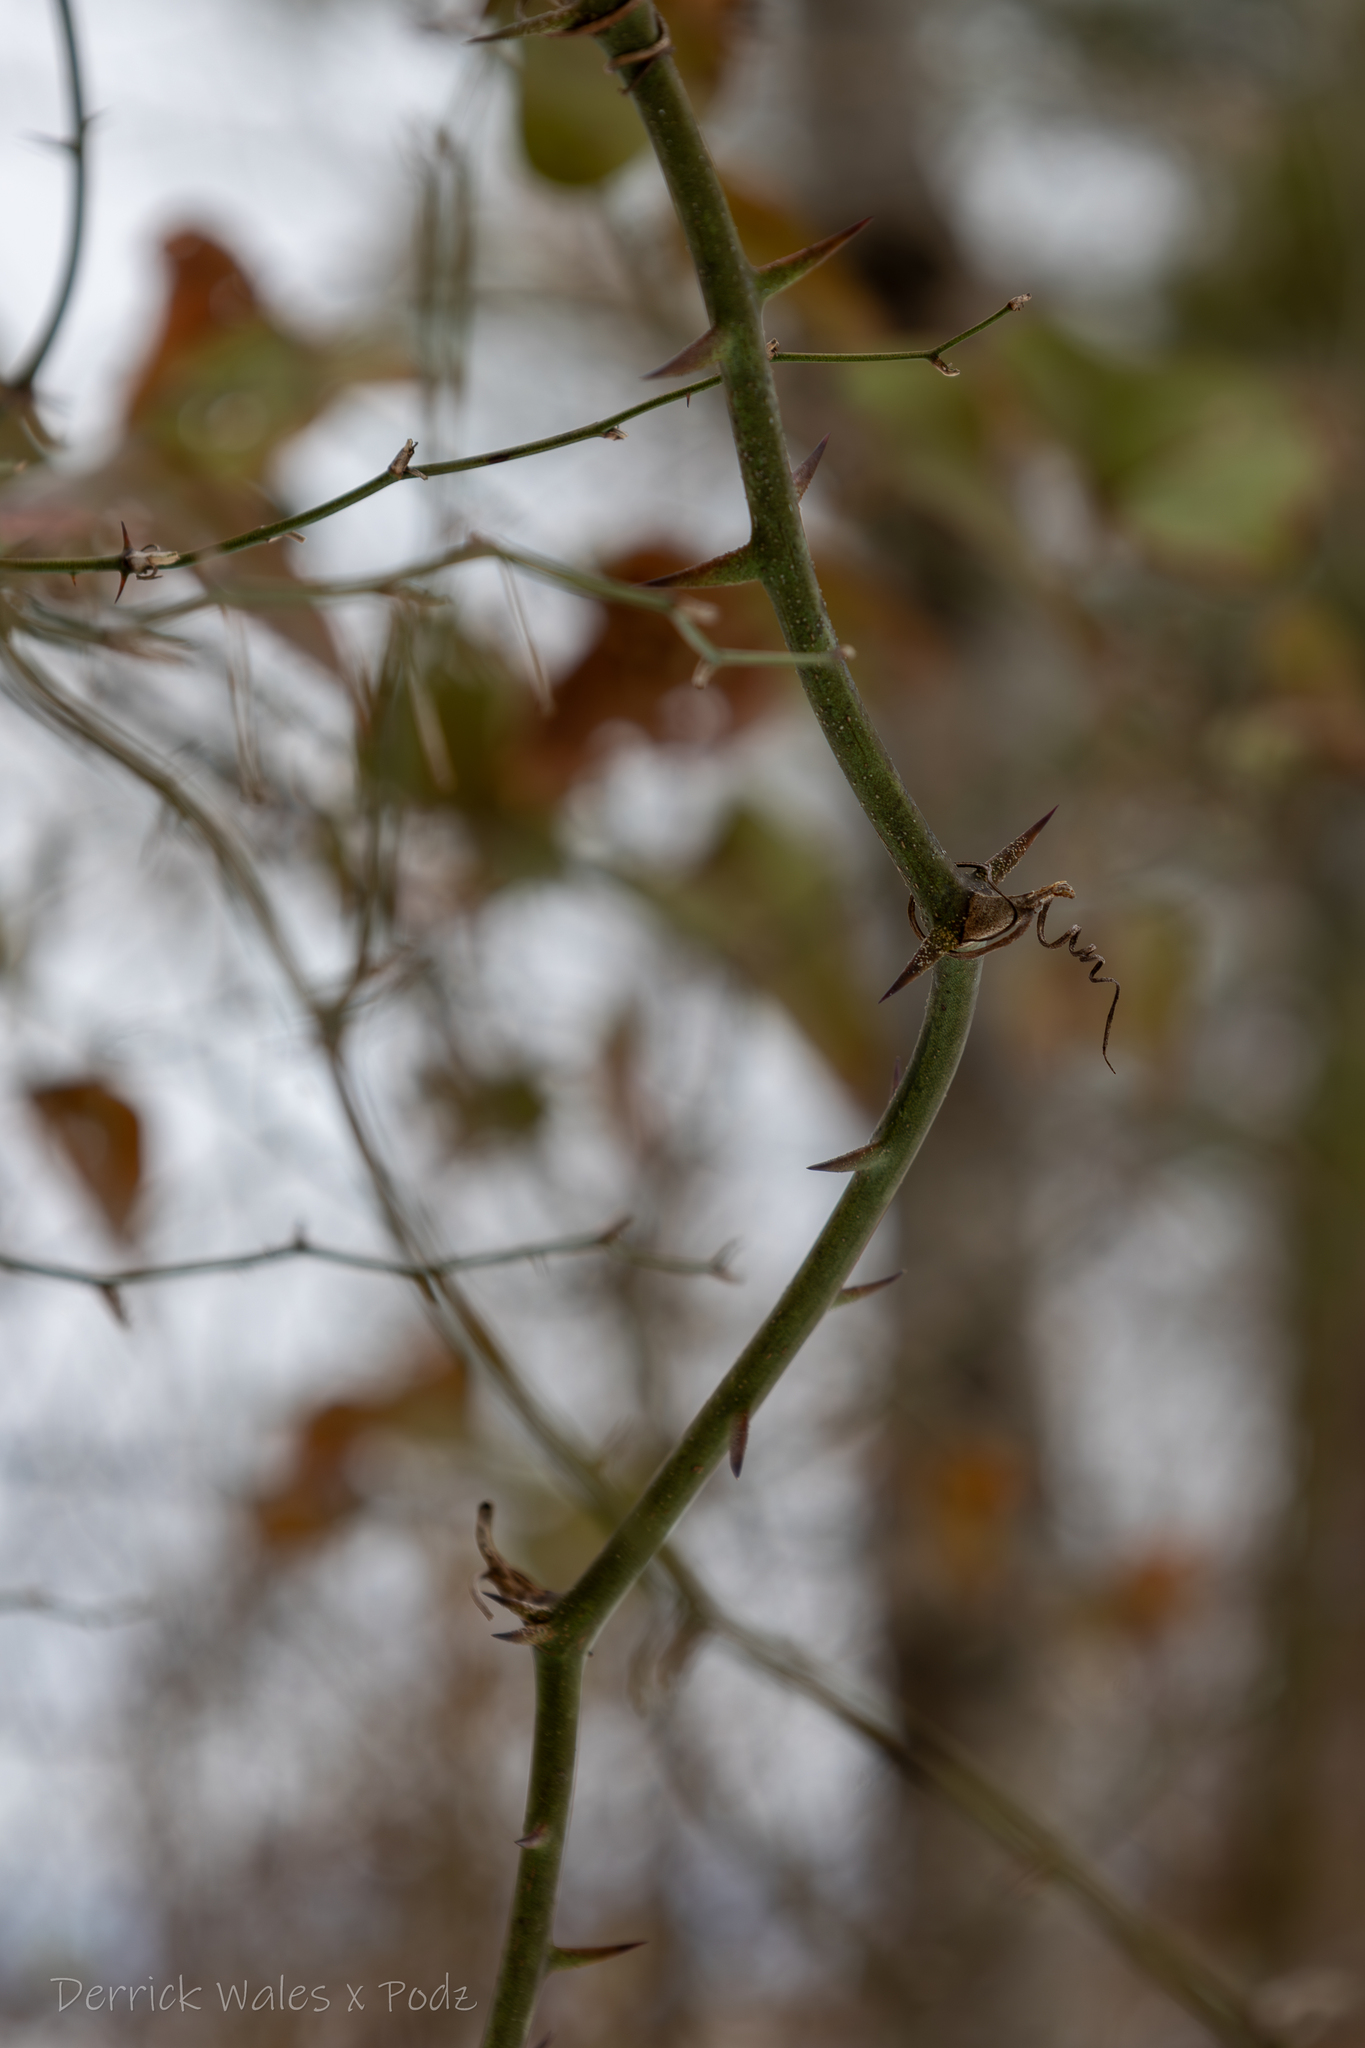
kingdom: Plantae
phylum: Tracheophyta
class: Liliopsida
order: Liliales
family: Smilacaceae
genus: Smilax
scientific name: Smilax rotundifolia
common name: Bullbriar
